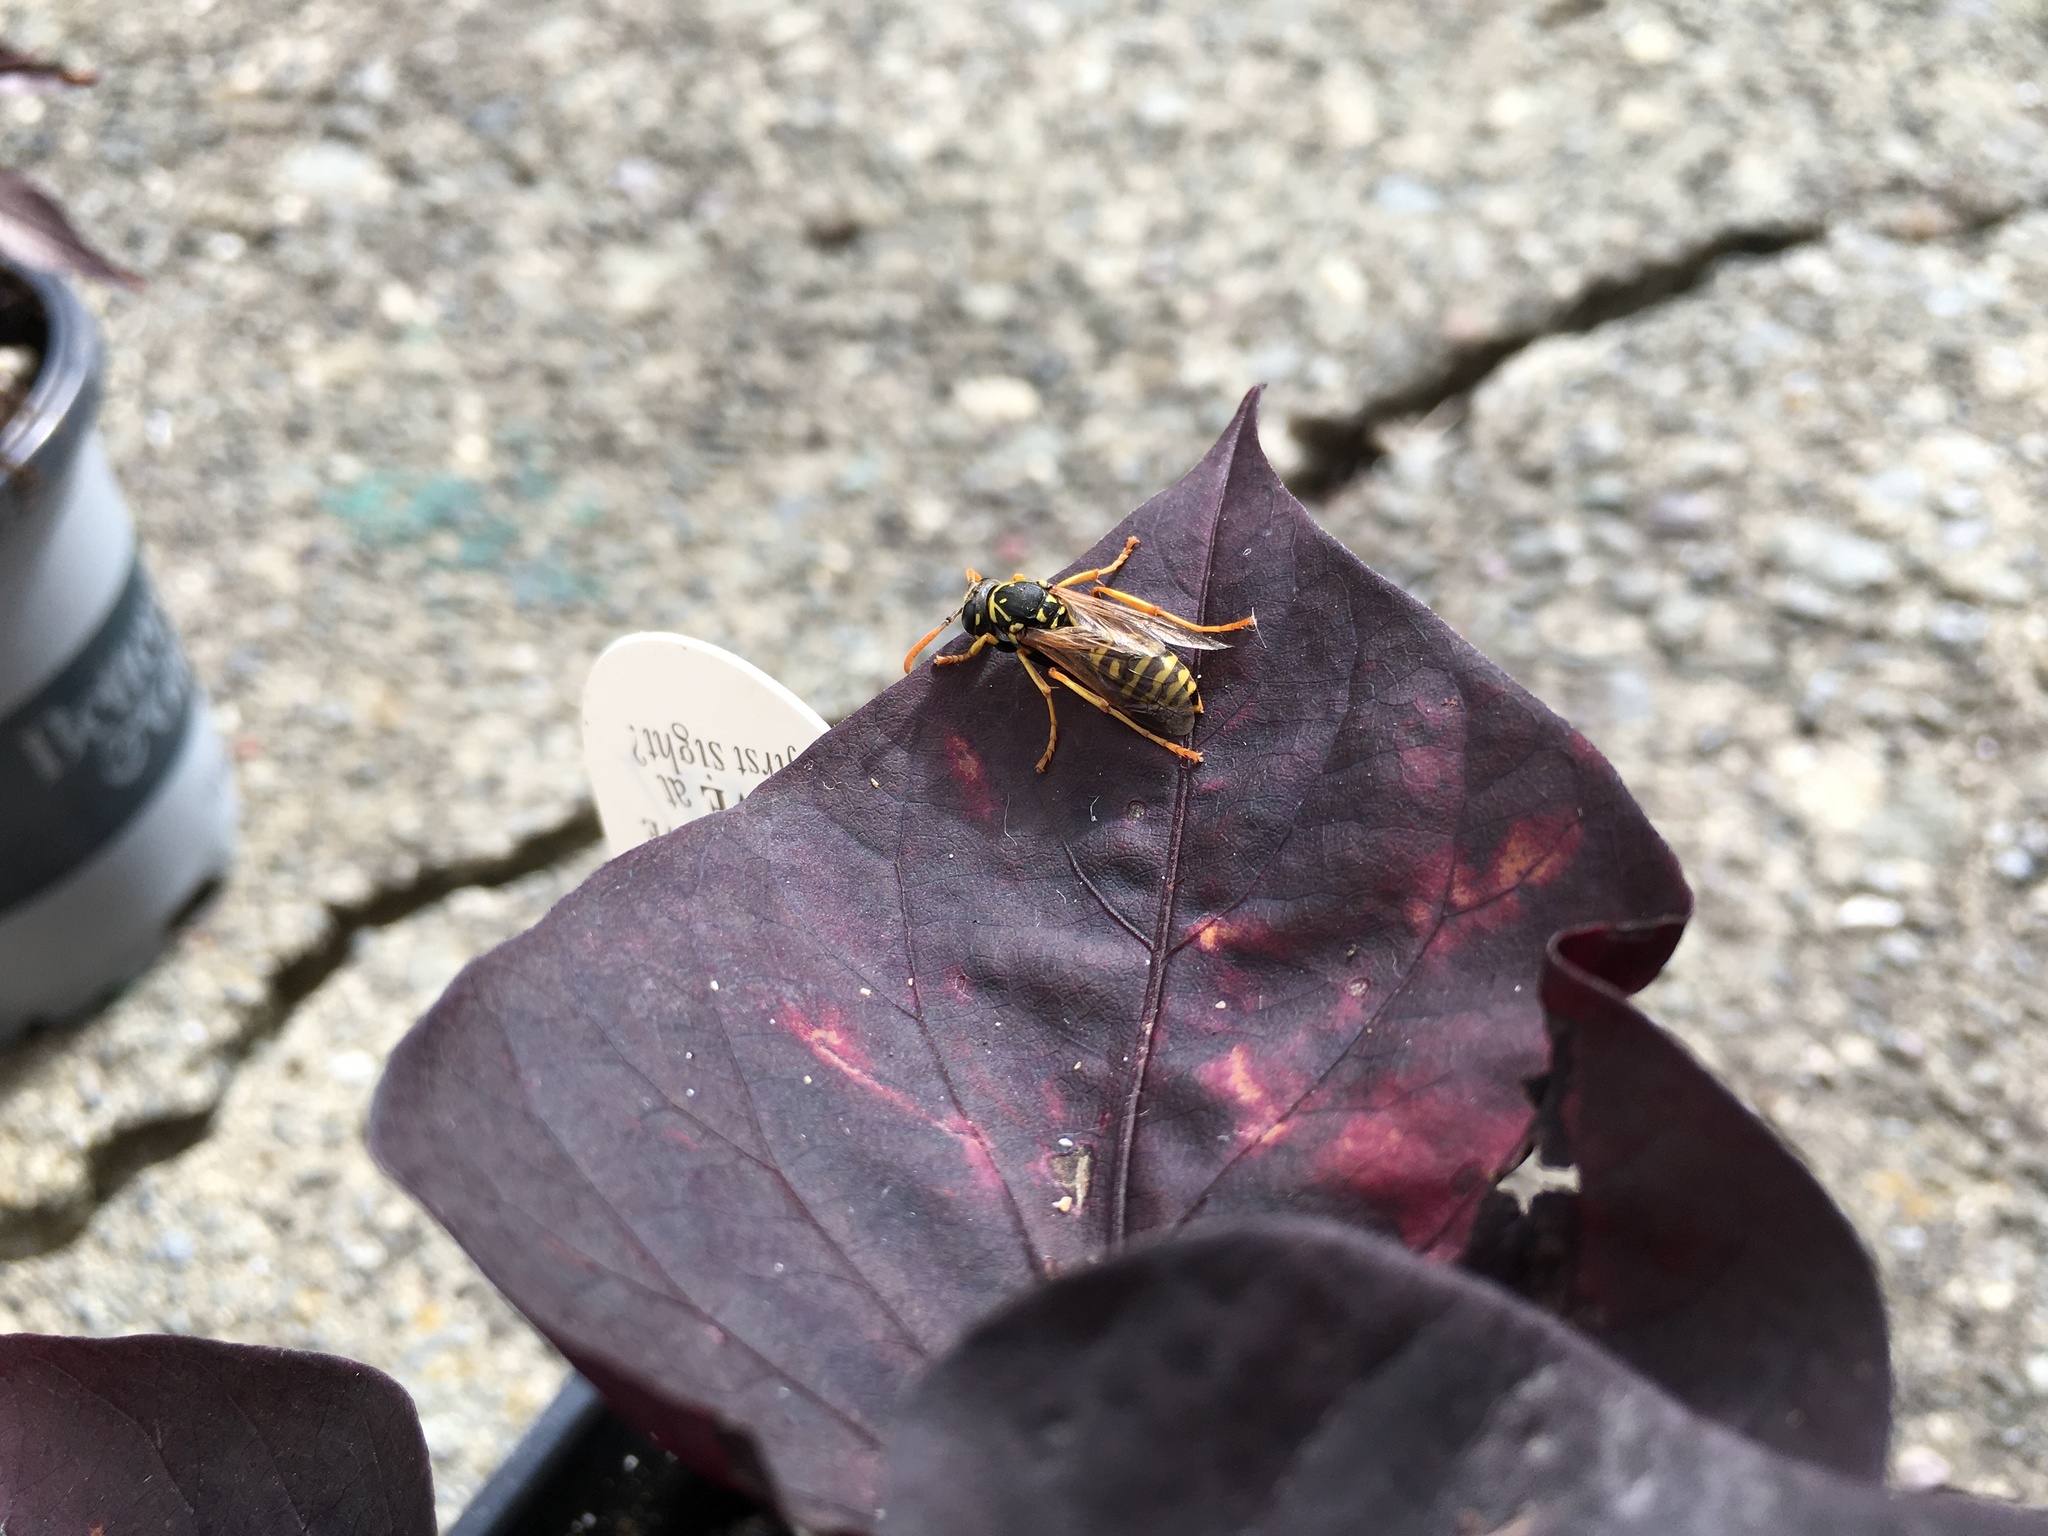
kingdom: Animalia
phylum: Arthropoda
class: Insecta
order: Hymenoptera
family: Eumenidae
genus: Polistes
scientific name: Polistes dominula
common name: Paper wasp
